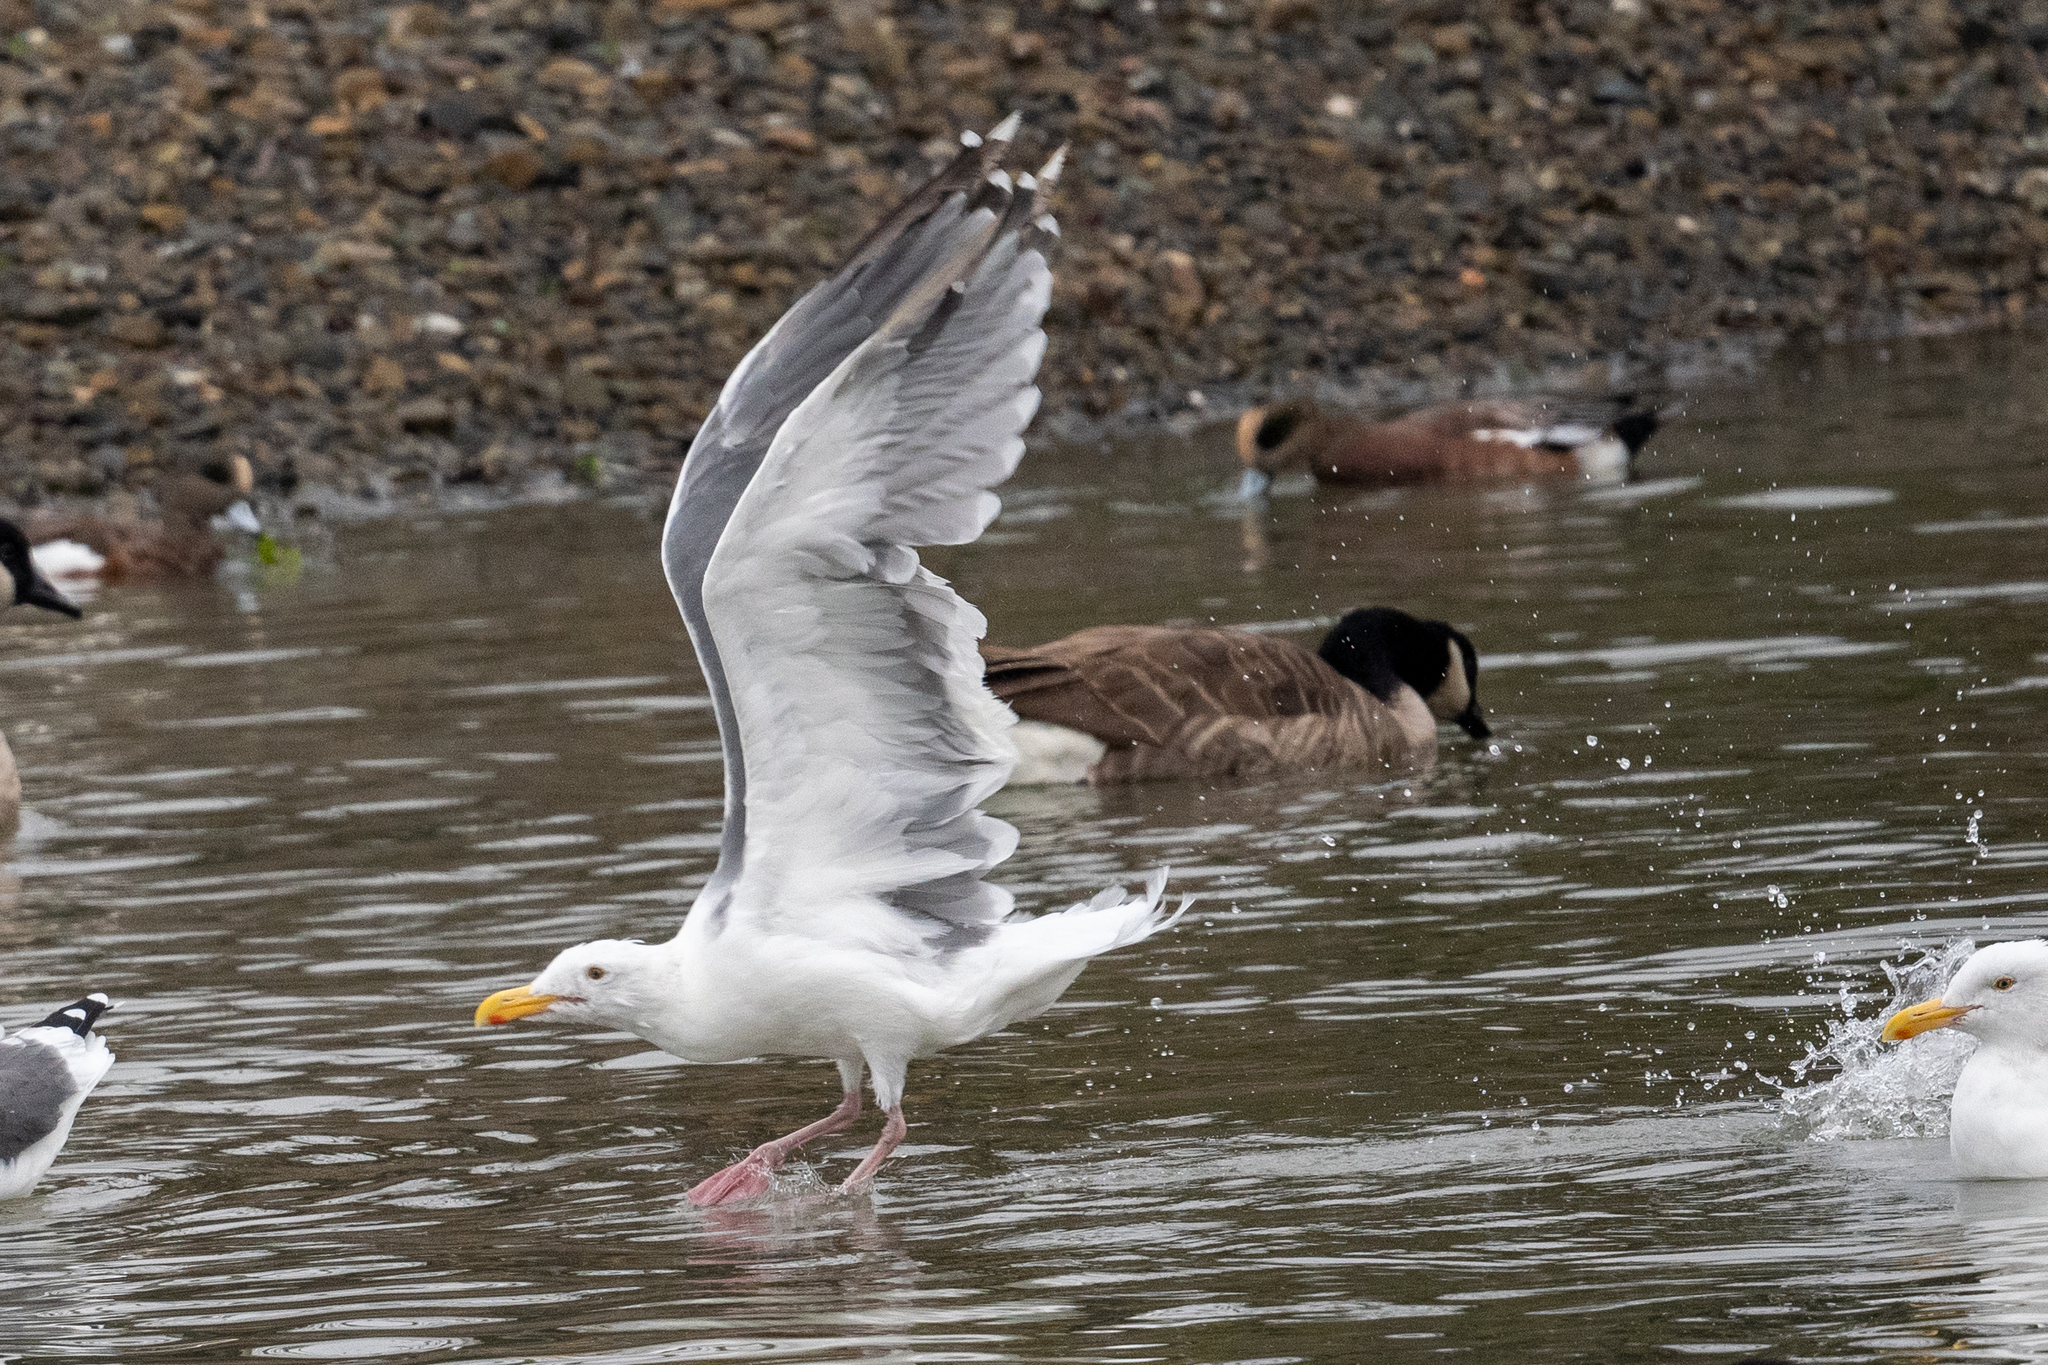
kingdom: Animalia
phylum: Chordata
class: Aves
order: Charadriiformes
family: Laridae
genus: Larus
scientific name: Larus occidentalis
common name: Western gull
